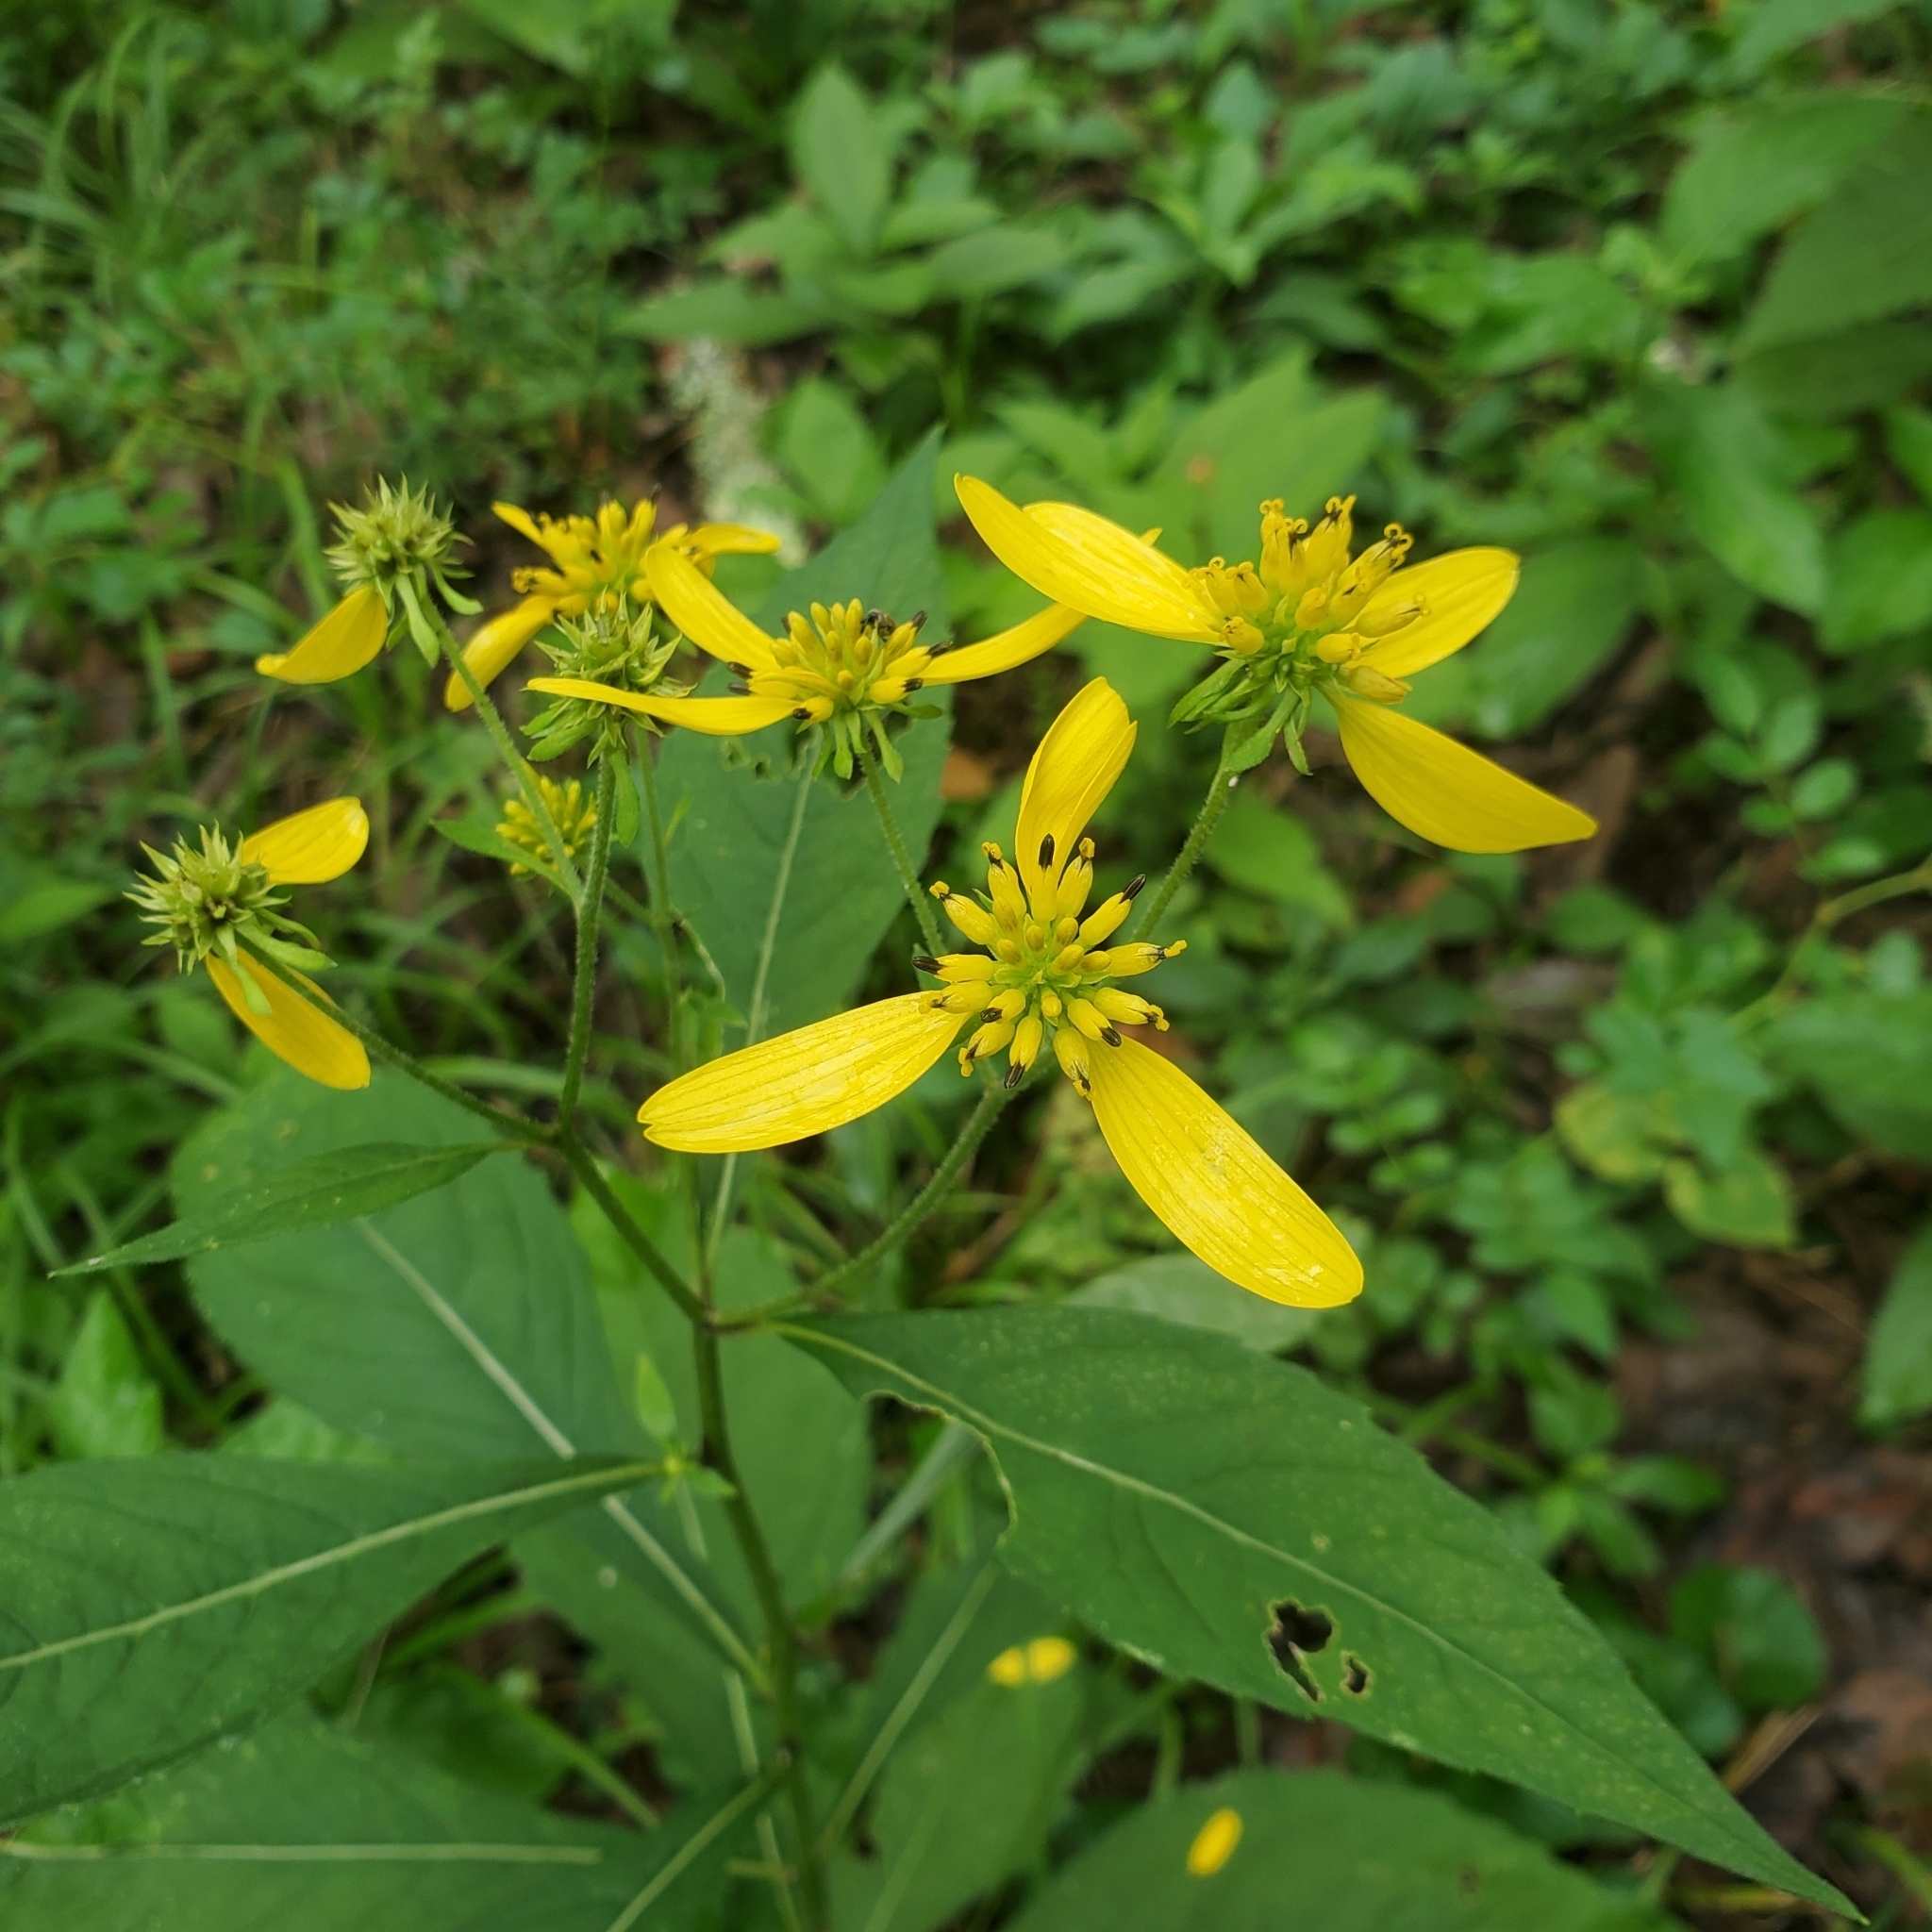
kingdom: Plantae
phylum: Tracheophyta
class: Magnoliopsida
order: Asterales
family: Asteraceae
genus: Verbesina
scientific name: Verbesina alternifolia
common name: Wingstem
